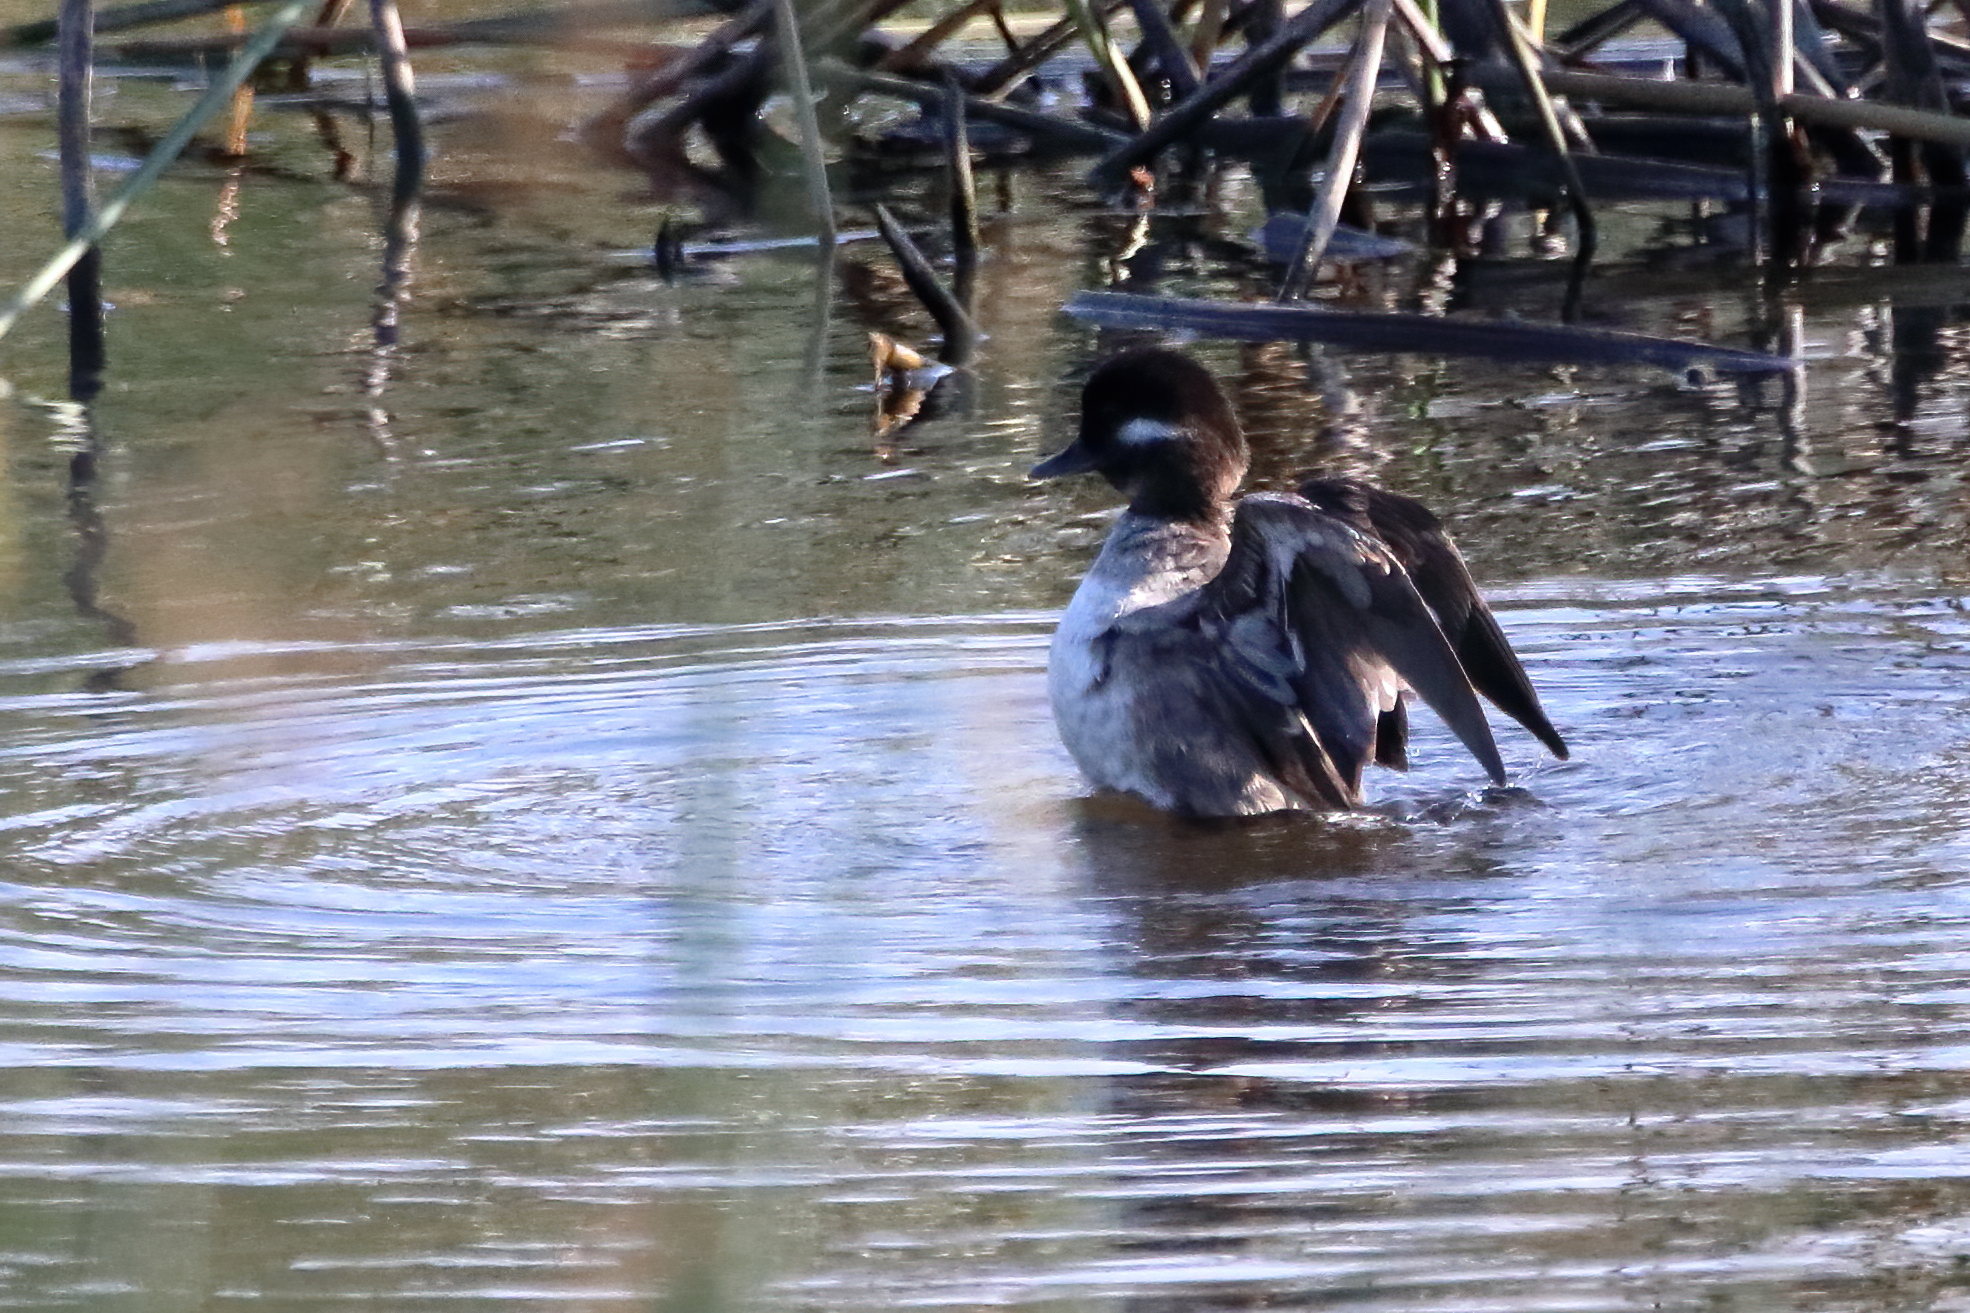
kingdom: Animalia
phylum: Chordata
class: Aves
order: Anseriformes
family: Anatidae
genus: Bucephala
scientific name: Bucephala albeola
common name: Bufflehead
